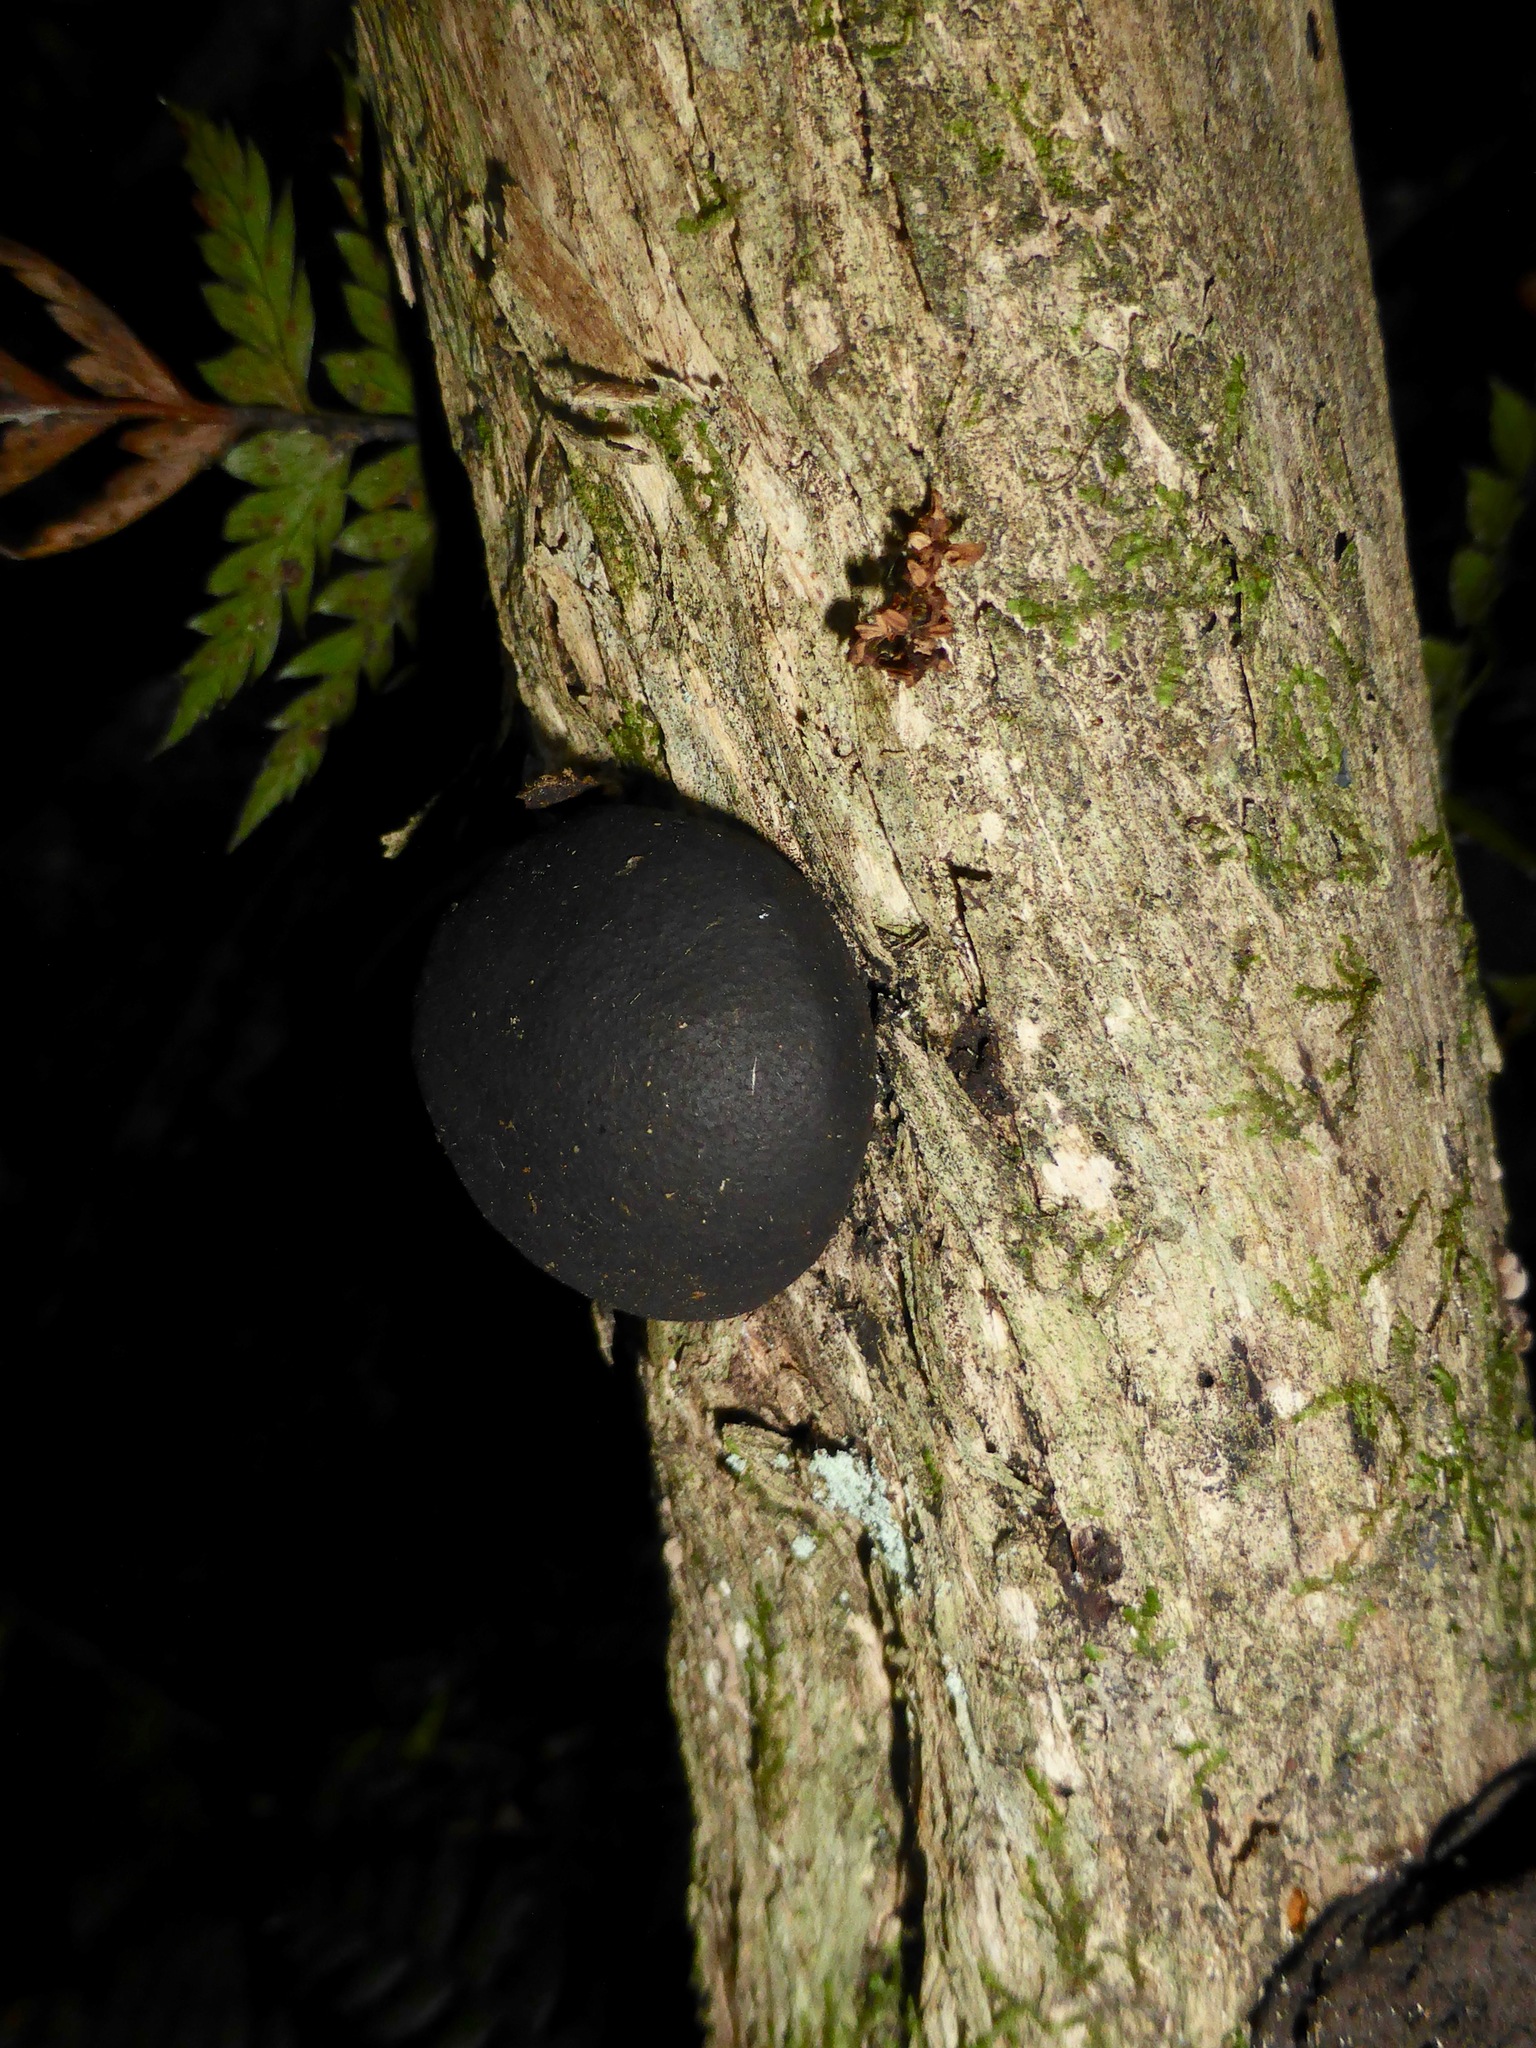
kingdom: Fungi
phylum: Ascomycota
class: Sordariomycetes
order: Xylariales
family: Hypoxylaceae
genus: Daldinia
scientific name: Daldinia
